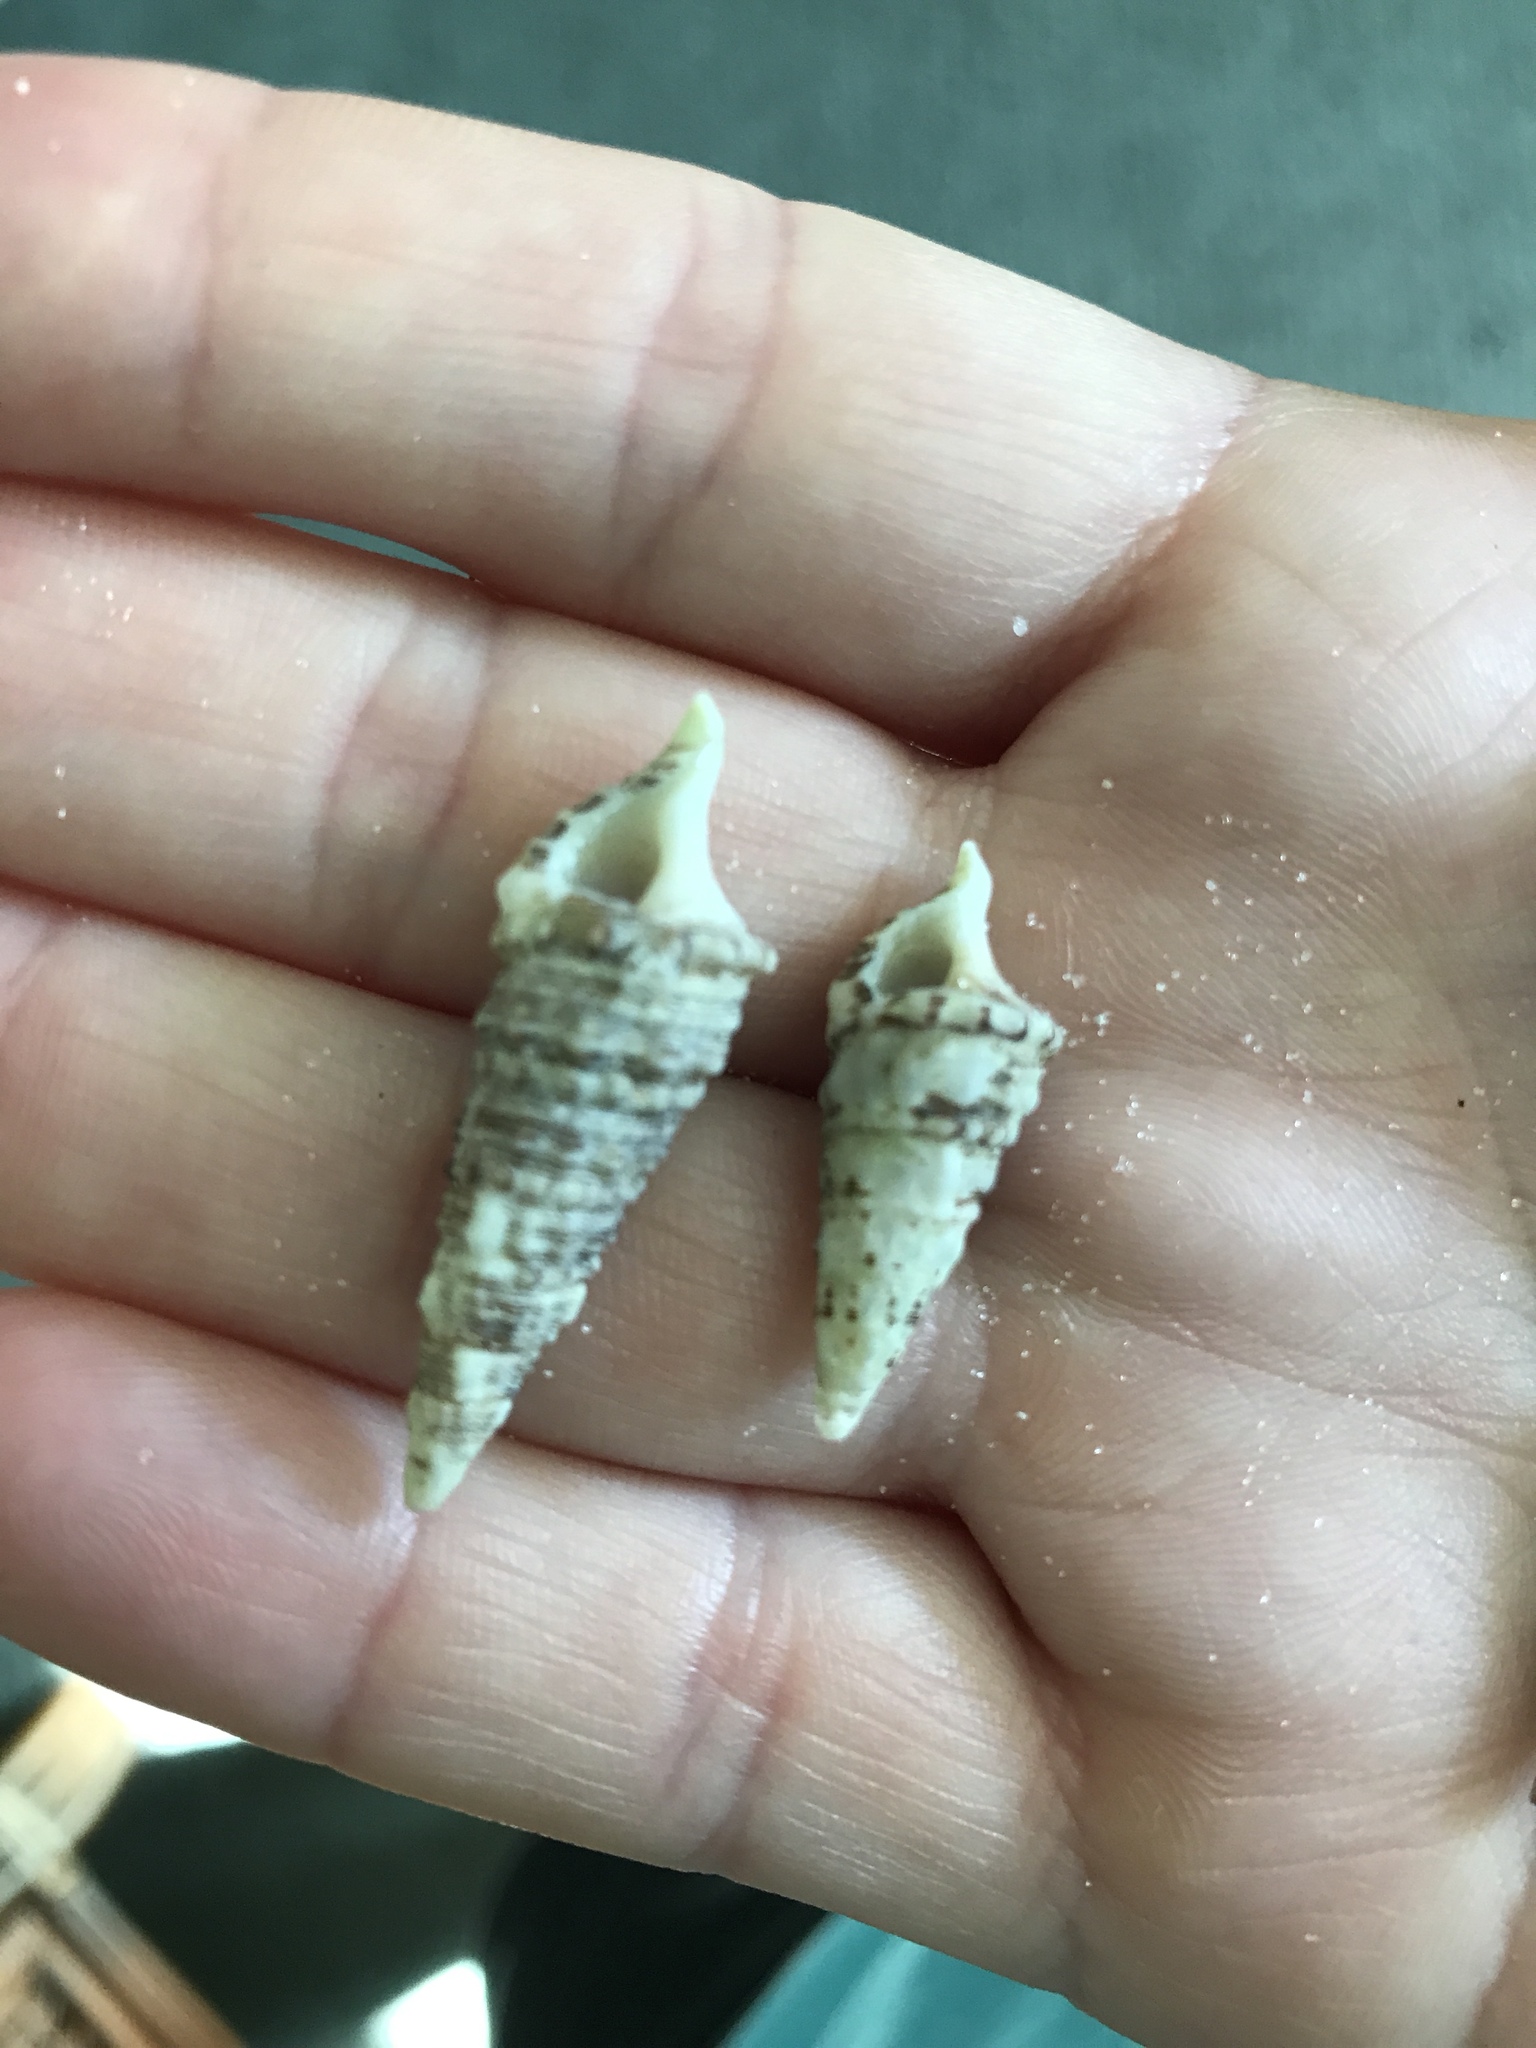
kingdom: Animalia
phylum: Mollusca
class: Gastropoda
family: Cerithiidae
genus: Cerithium
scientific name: Cerithium atratum
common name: Dark cerith
